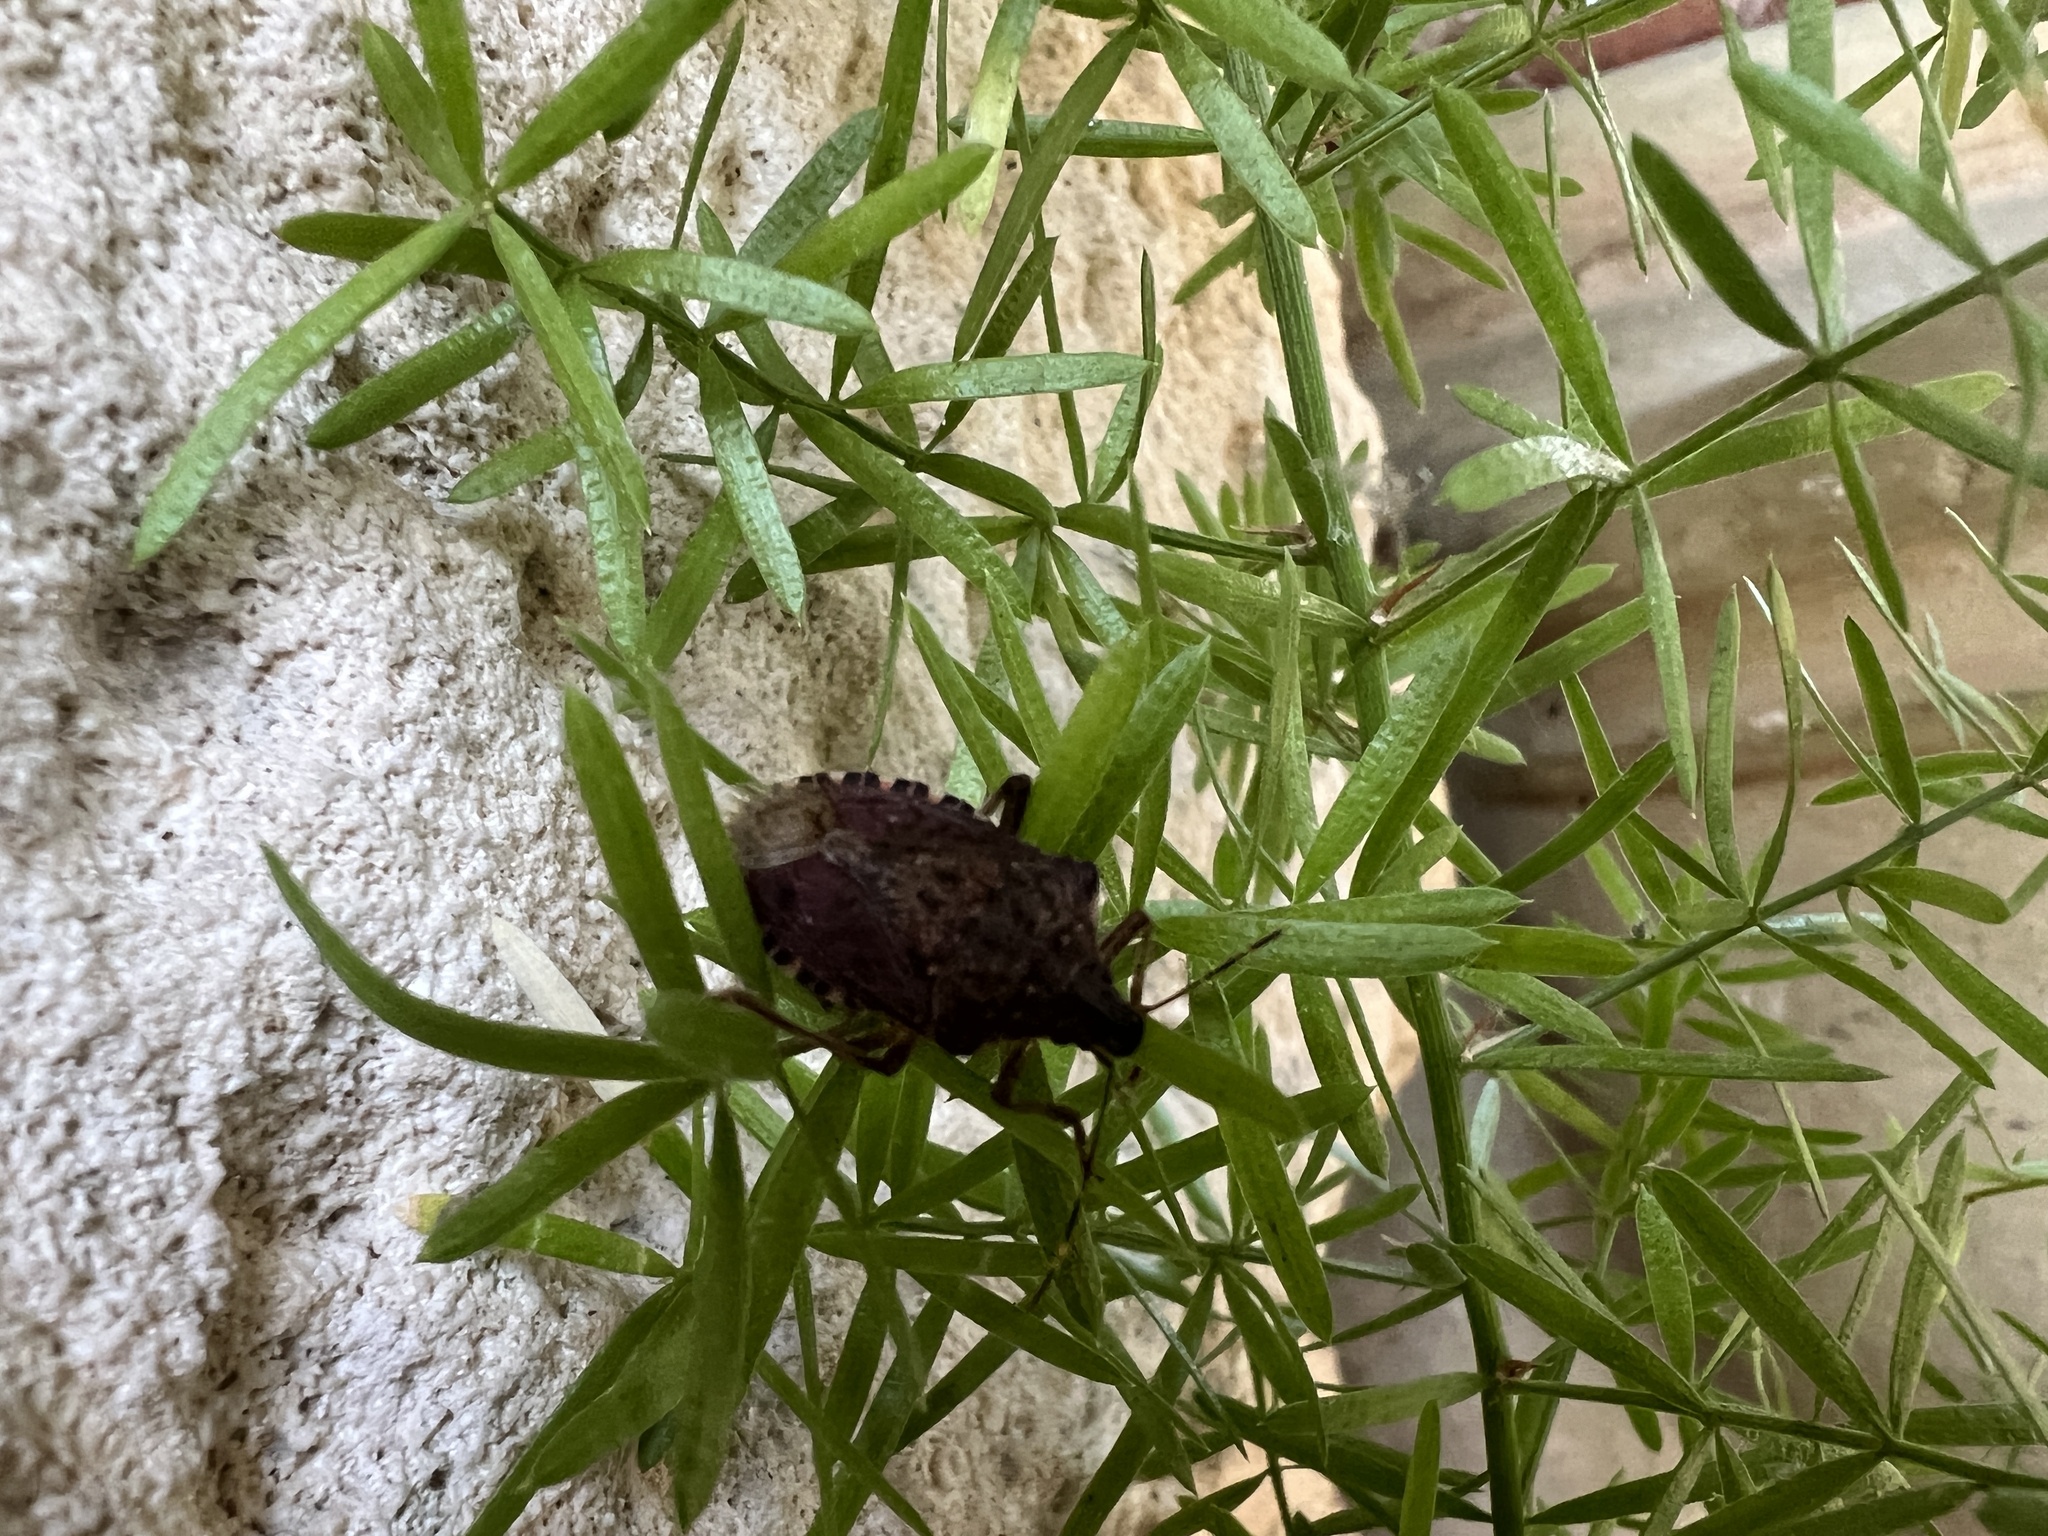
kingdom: Animalia
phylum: Arthropoda
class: Insecta
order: Hemiptera
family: Pentatomidae
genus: Halyomorpha
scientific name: Halyomorpha halys
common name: Brown marmorated stink bug
